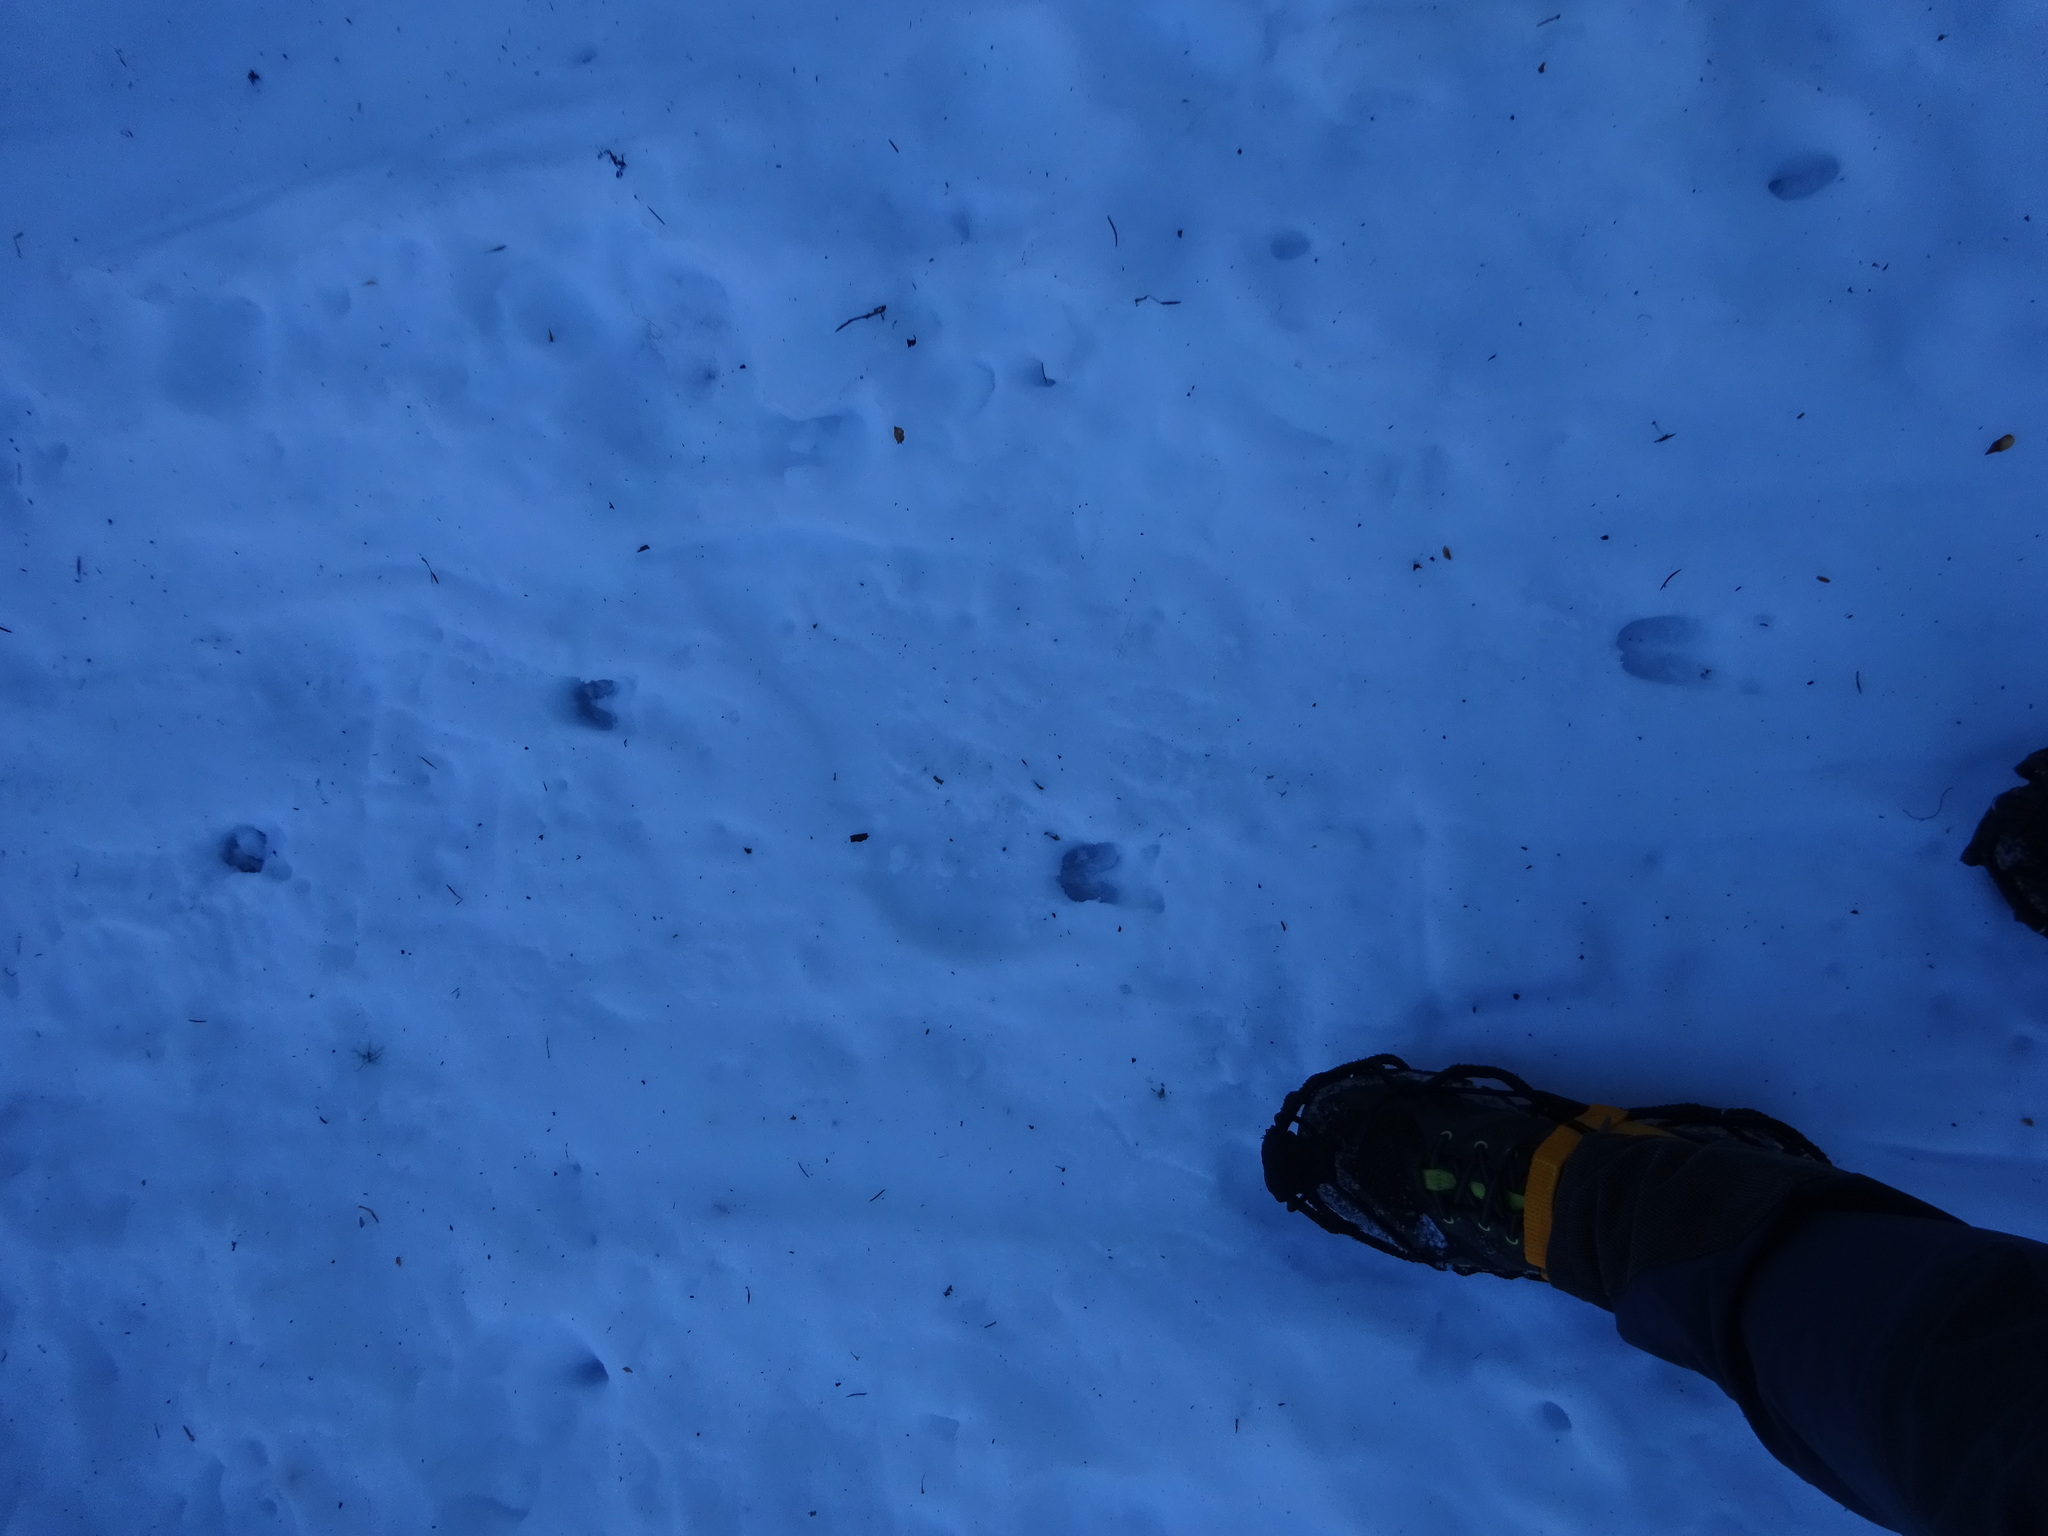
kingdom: Animalia
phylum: Chordata
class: Mammalia
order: Artiodactyla
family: Cervidae
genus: Capreolus
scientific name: Capreolus capreolus
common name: Western roe deer
